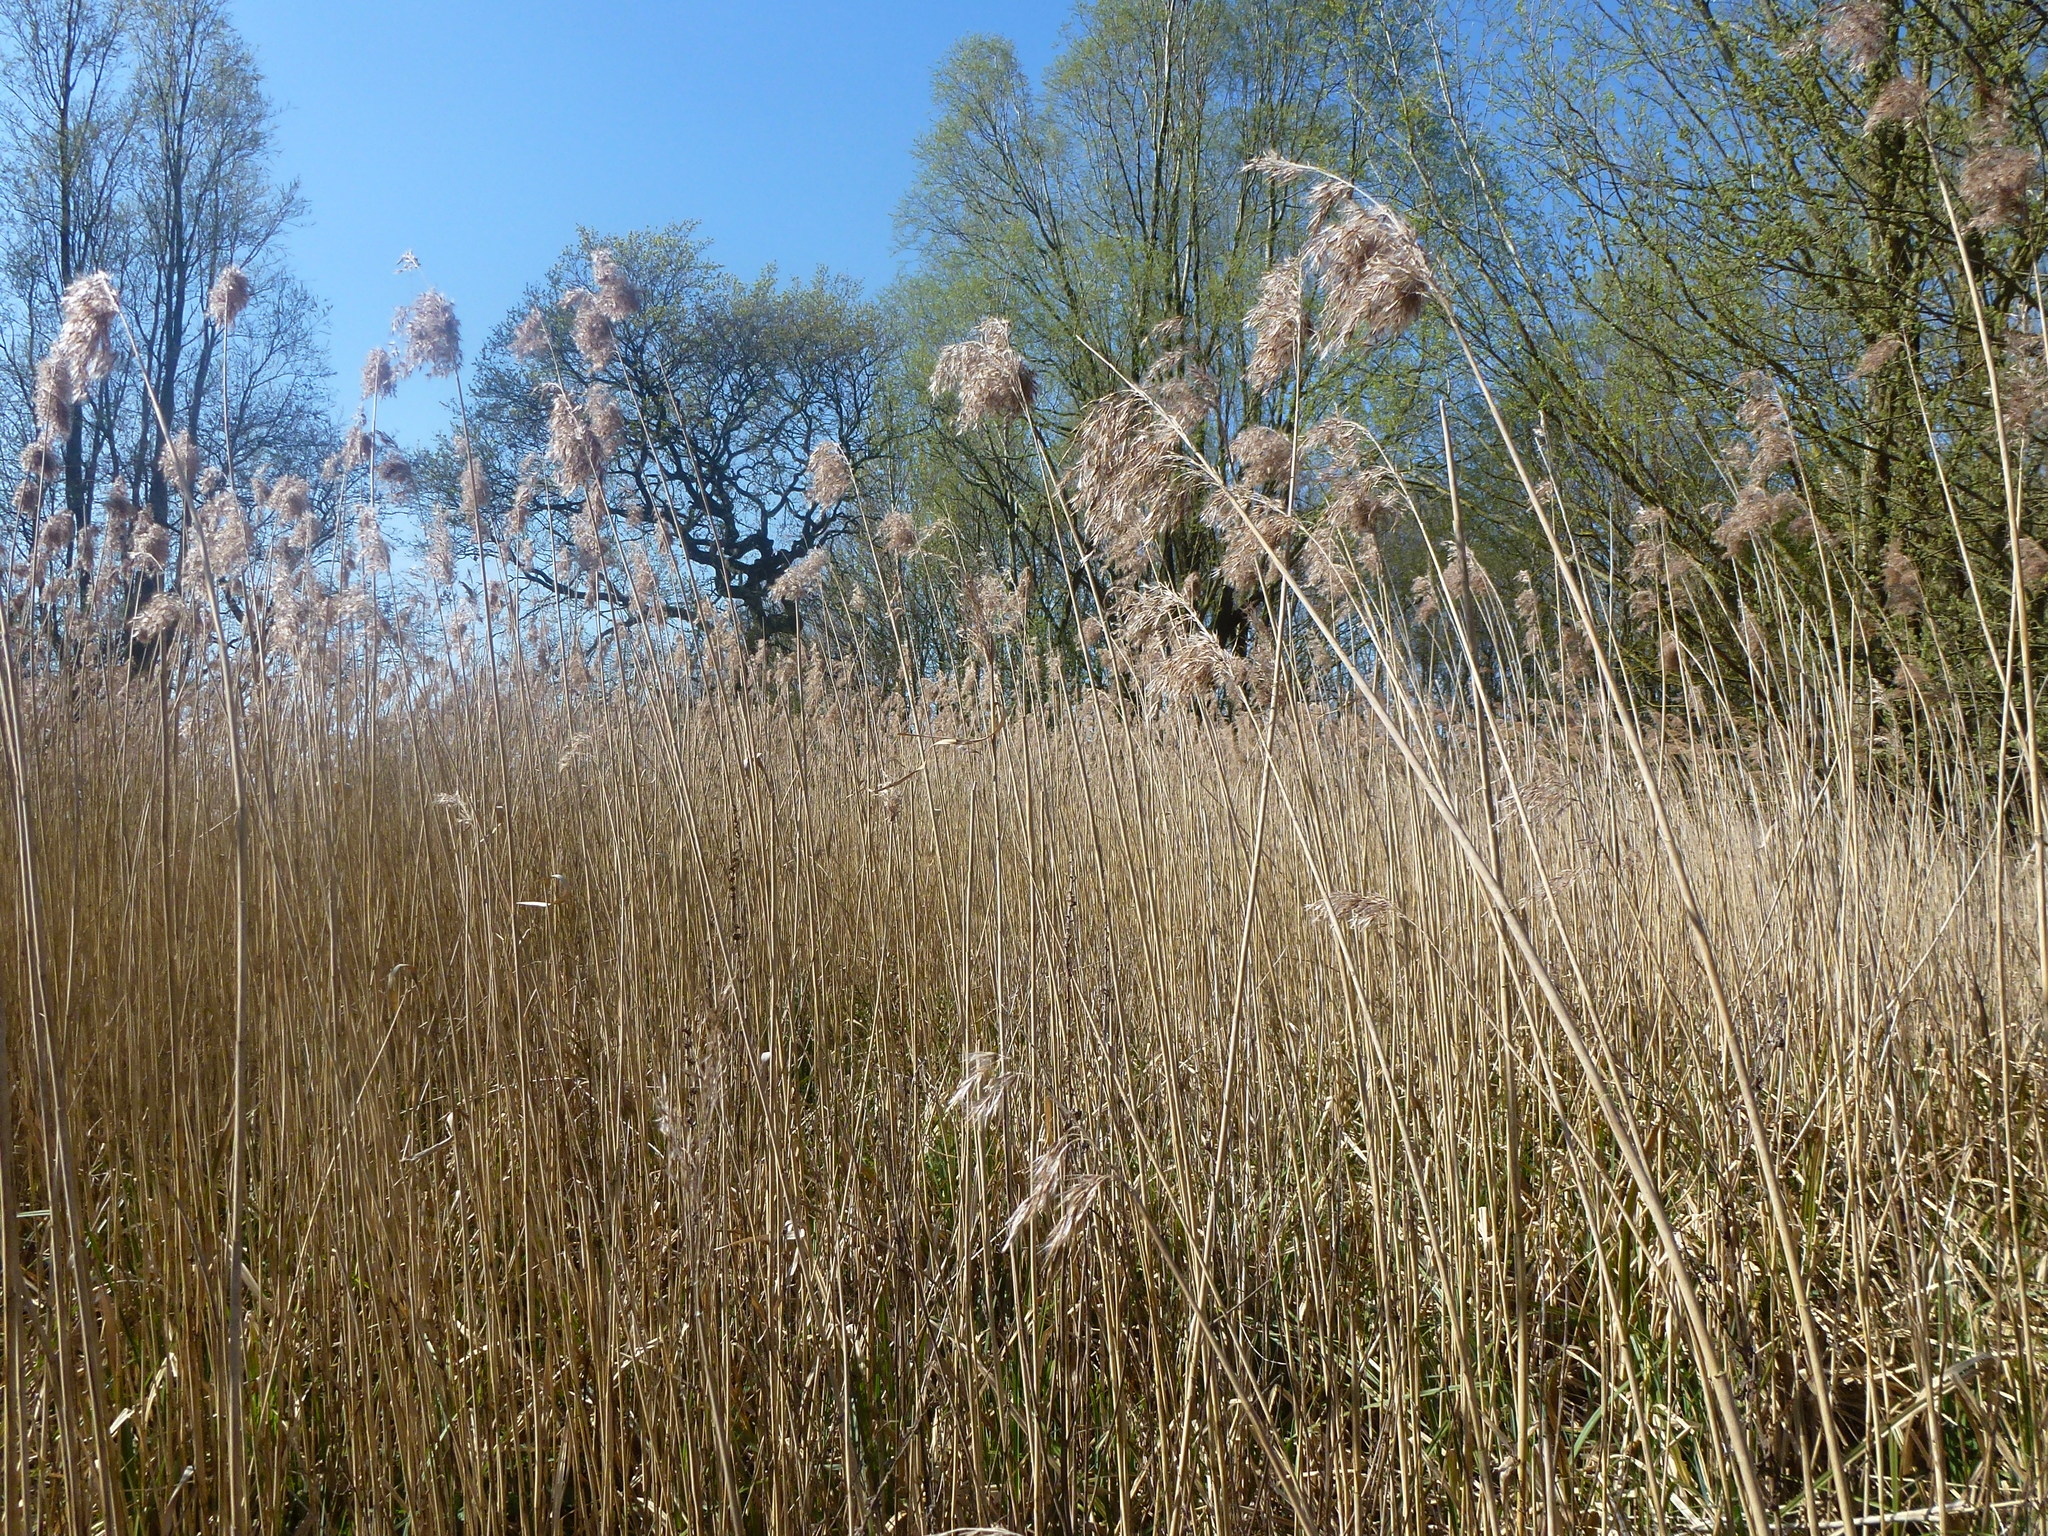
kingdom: Plantae
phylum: Tracheophyta
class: Liliopsida
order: Poales
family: Poaceae
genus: Phragmites
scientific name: Phragmites australis
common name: Common reed
